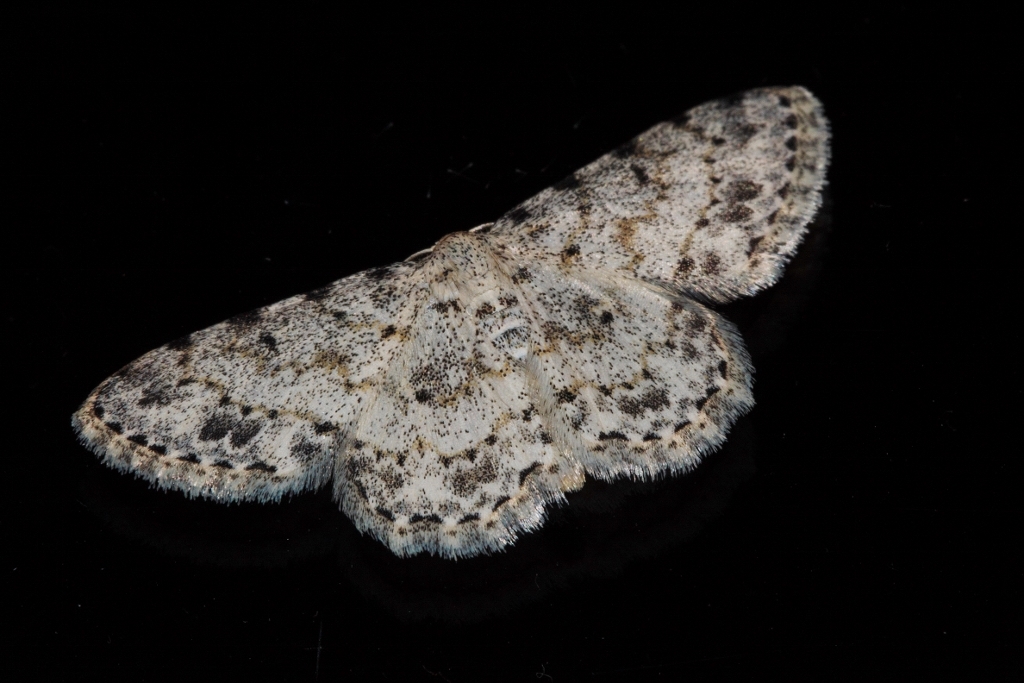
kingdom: Animalia
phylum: Arthropoda
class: Insecta
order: Lepidoptera
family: Geometridae
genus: Scopula
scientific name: Scopula nigrinotata
